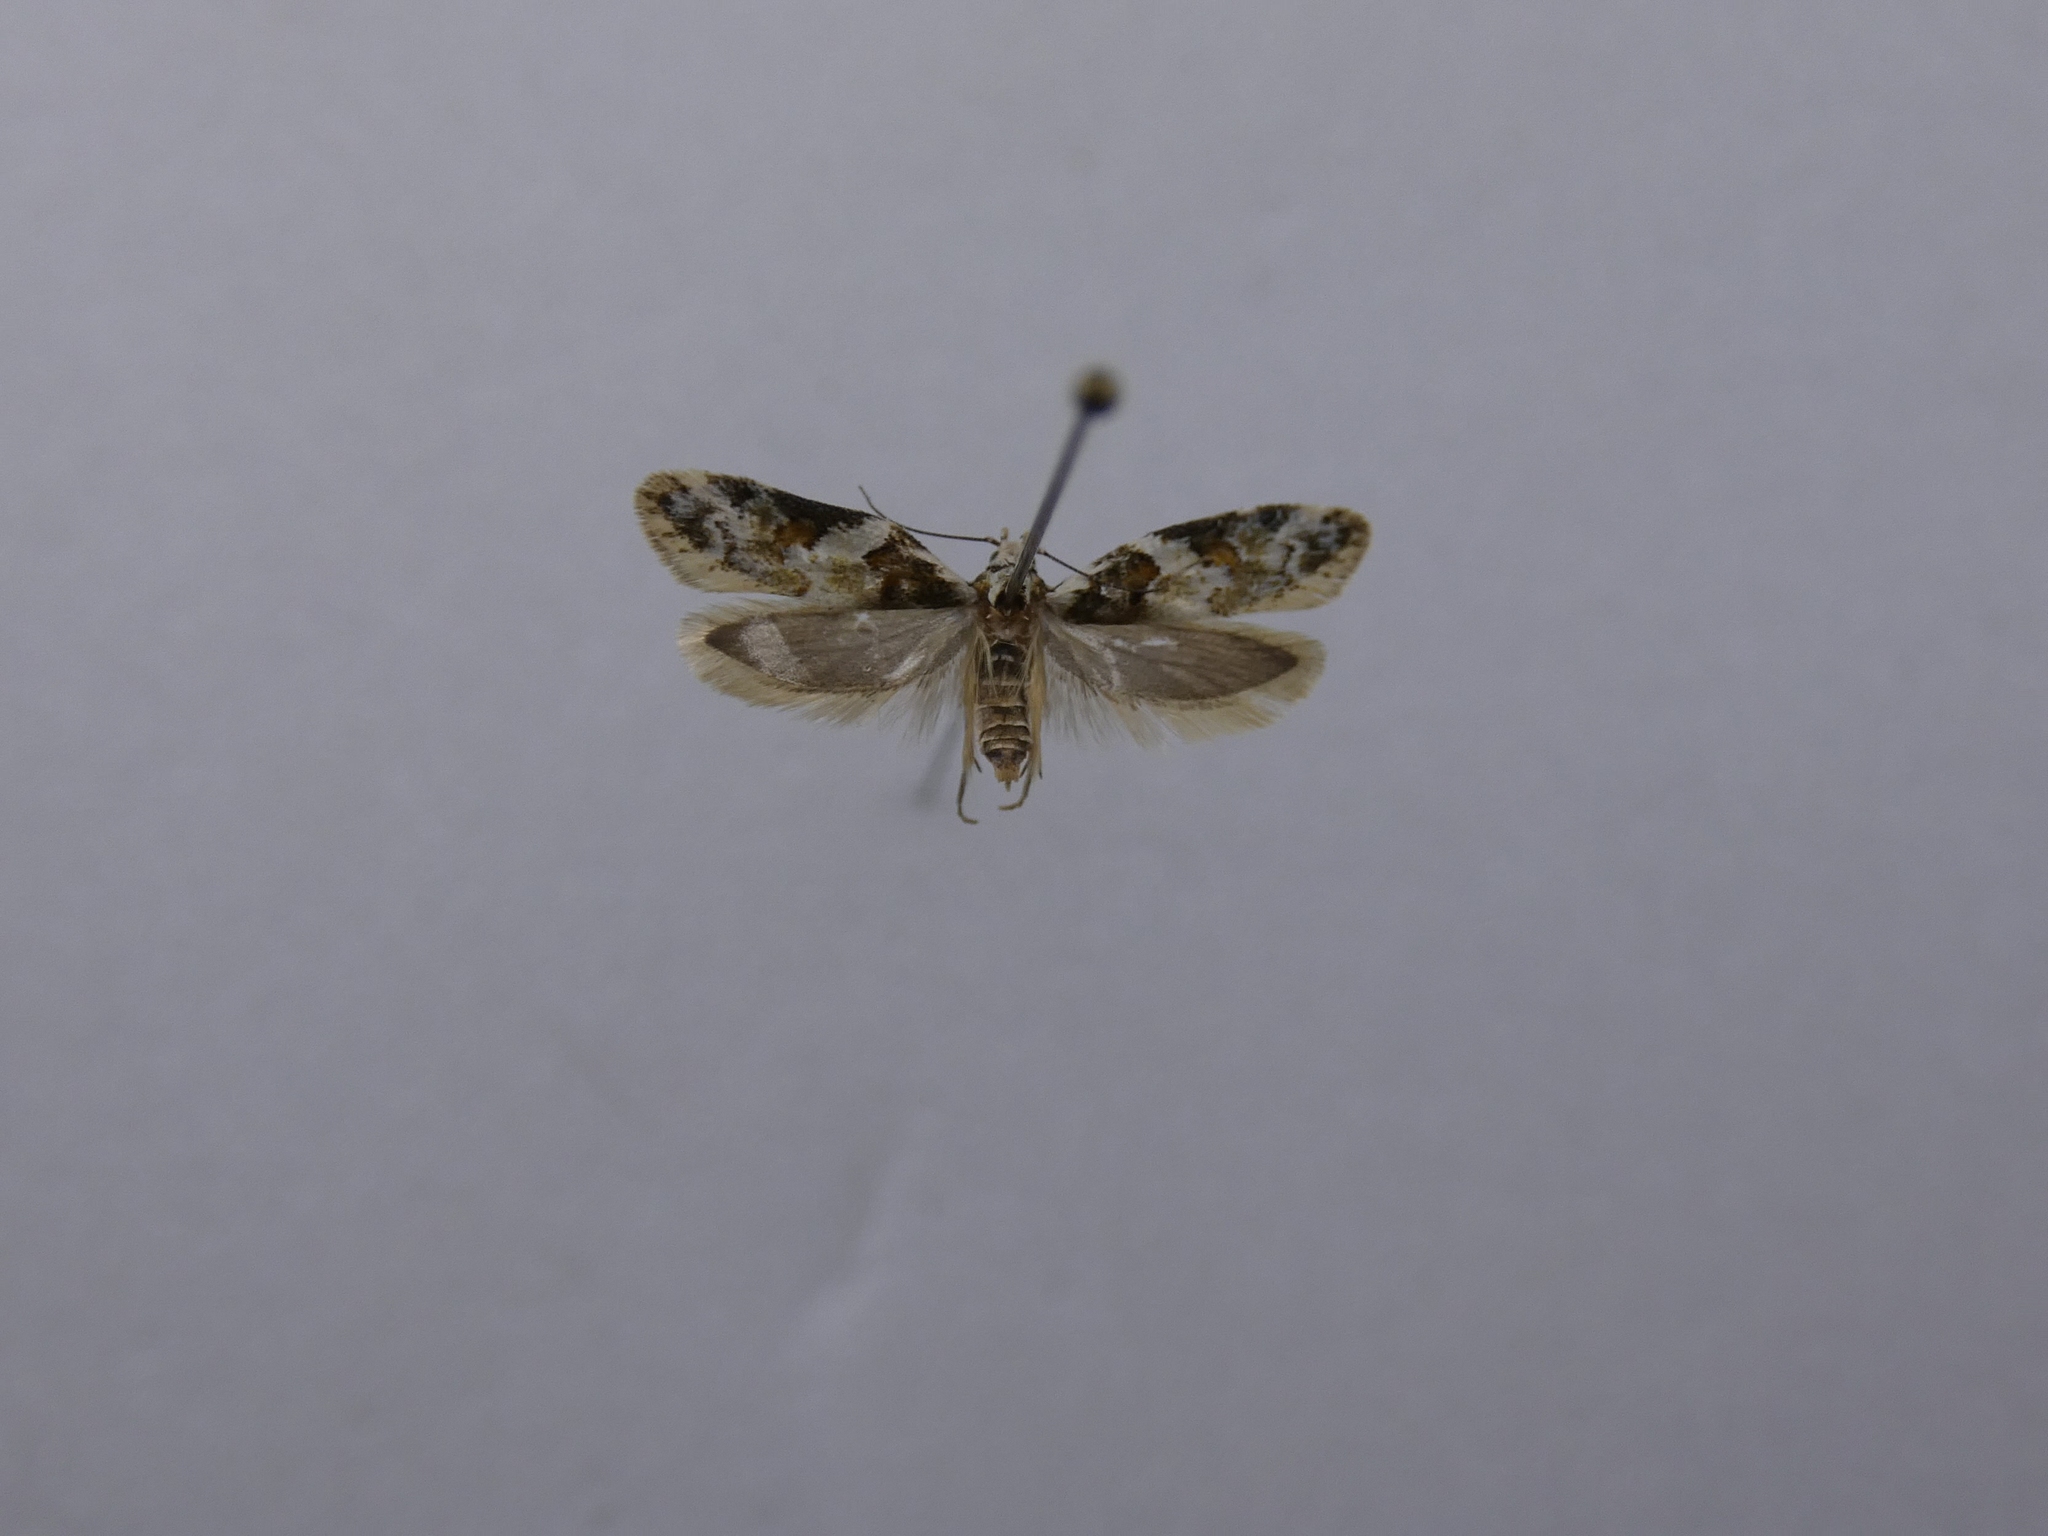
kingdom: Animalia
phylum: Arthropoda
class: Insecta
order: Lepidoptera
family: Oecophoridae
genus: Trachypepla
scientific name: Trachypepla galaxias
